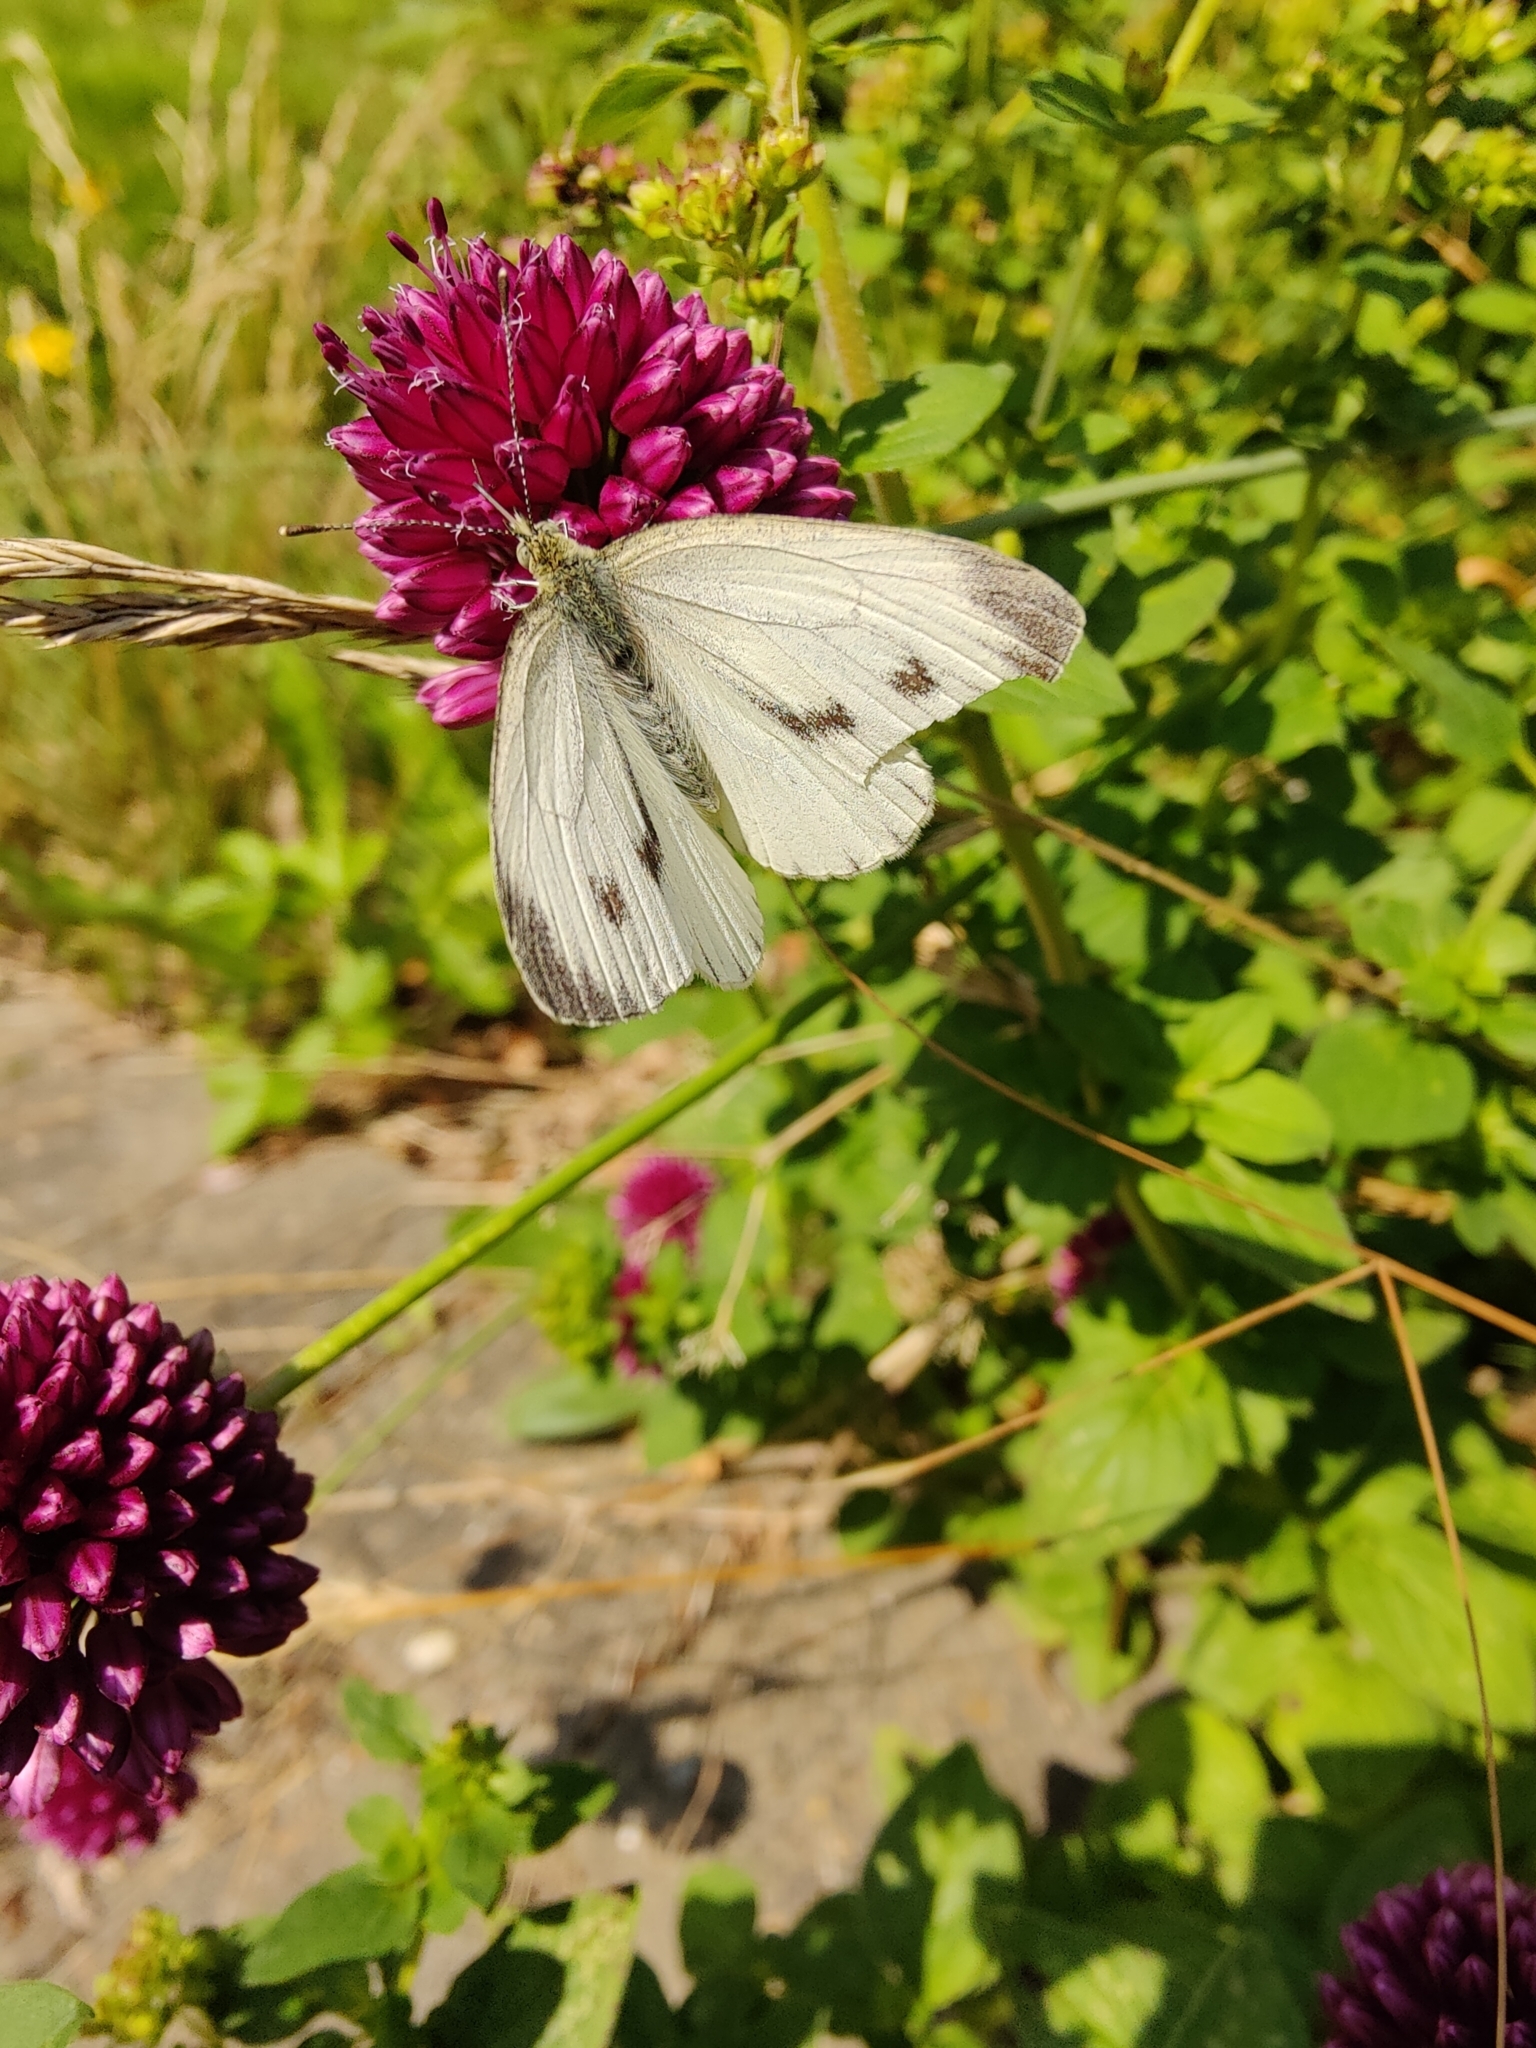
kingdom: Animalia
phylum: Arthropoda
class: Insecta
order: Lepidoptera
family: Pieridae
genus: Pieris
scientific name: Pieris napi
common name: Green-veined white
